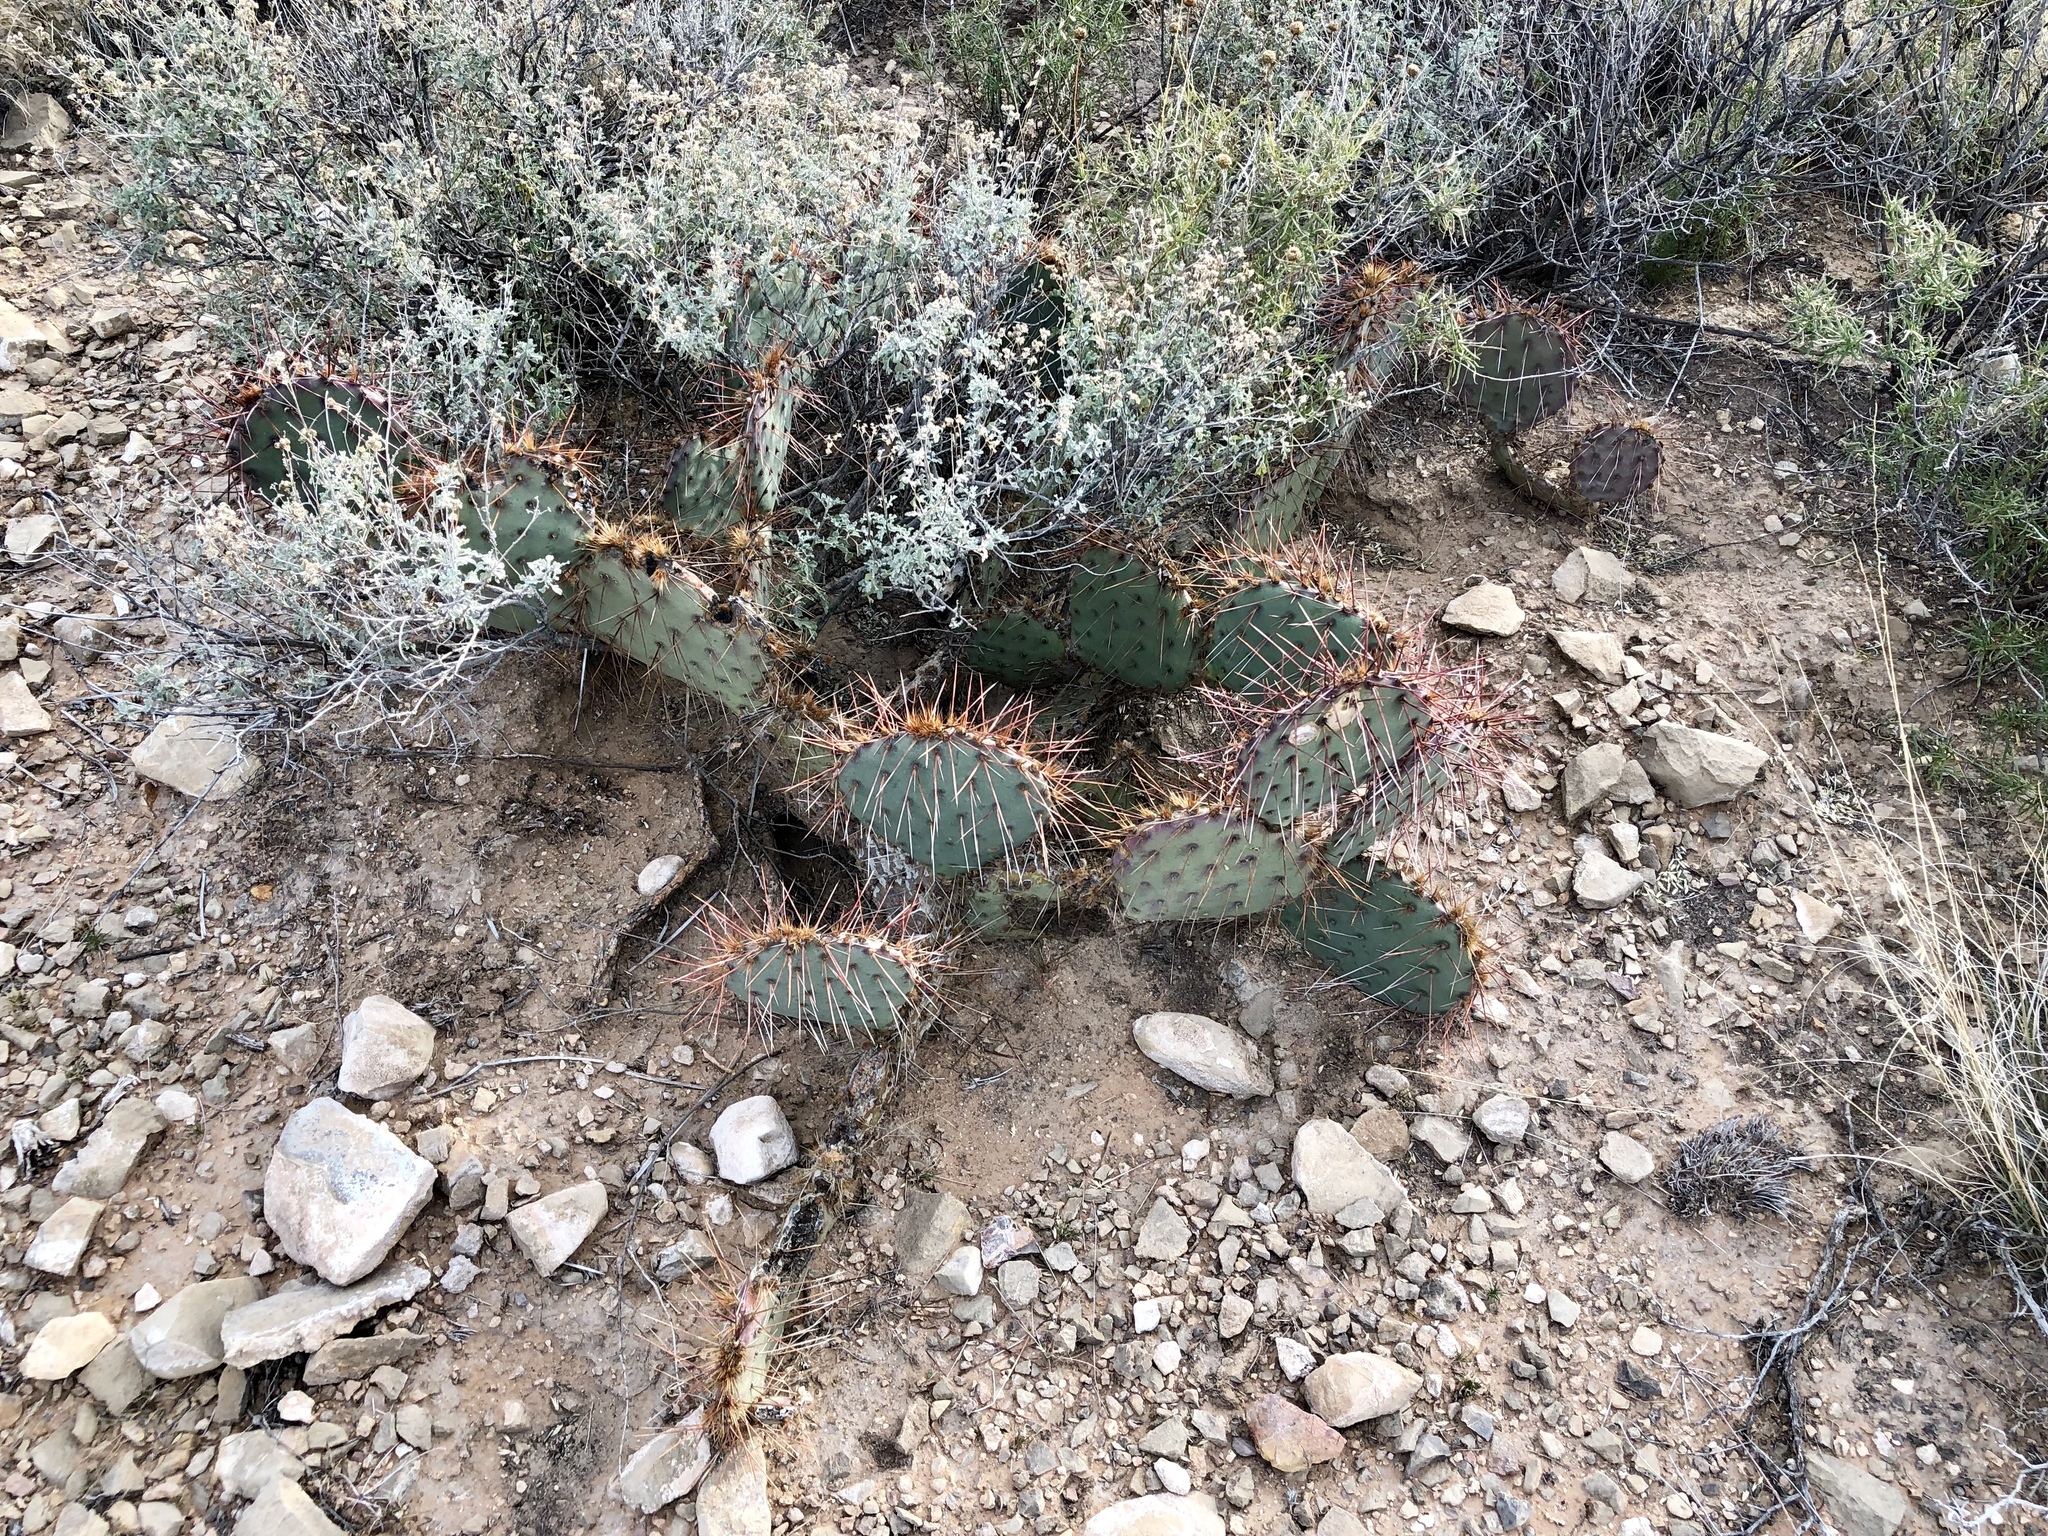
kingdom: Plantae
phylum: Tracheophyta
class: Magnoliopsida
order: Caryophyllales
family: Cactaceae
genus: Opuntia
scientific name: Opuntia phaeacantha
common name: New mexico prickly-pear
